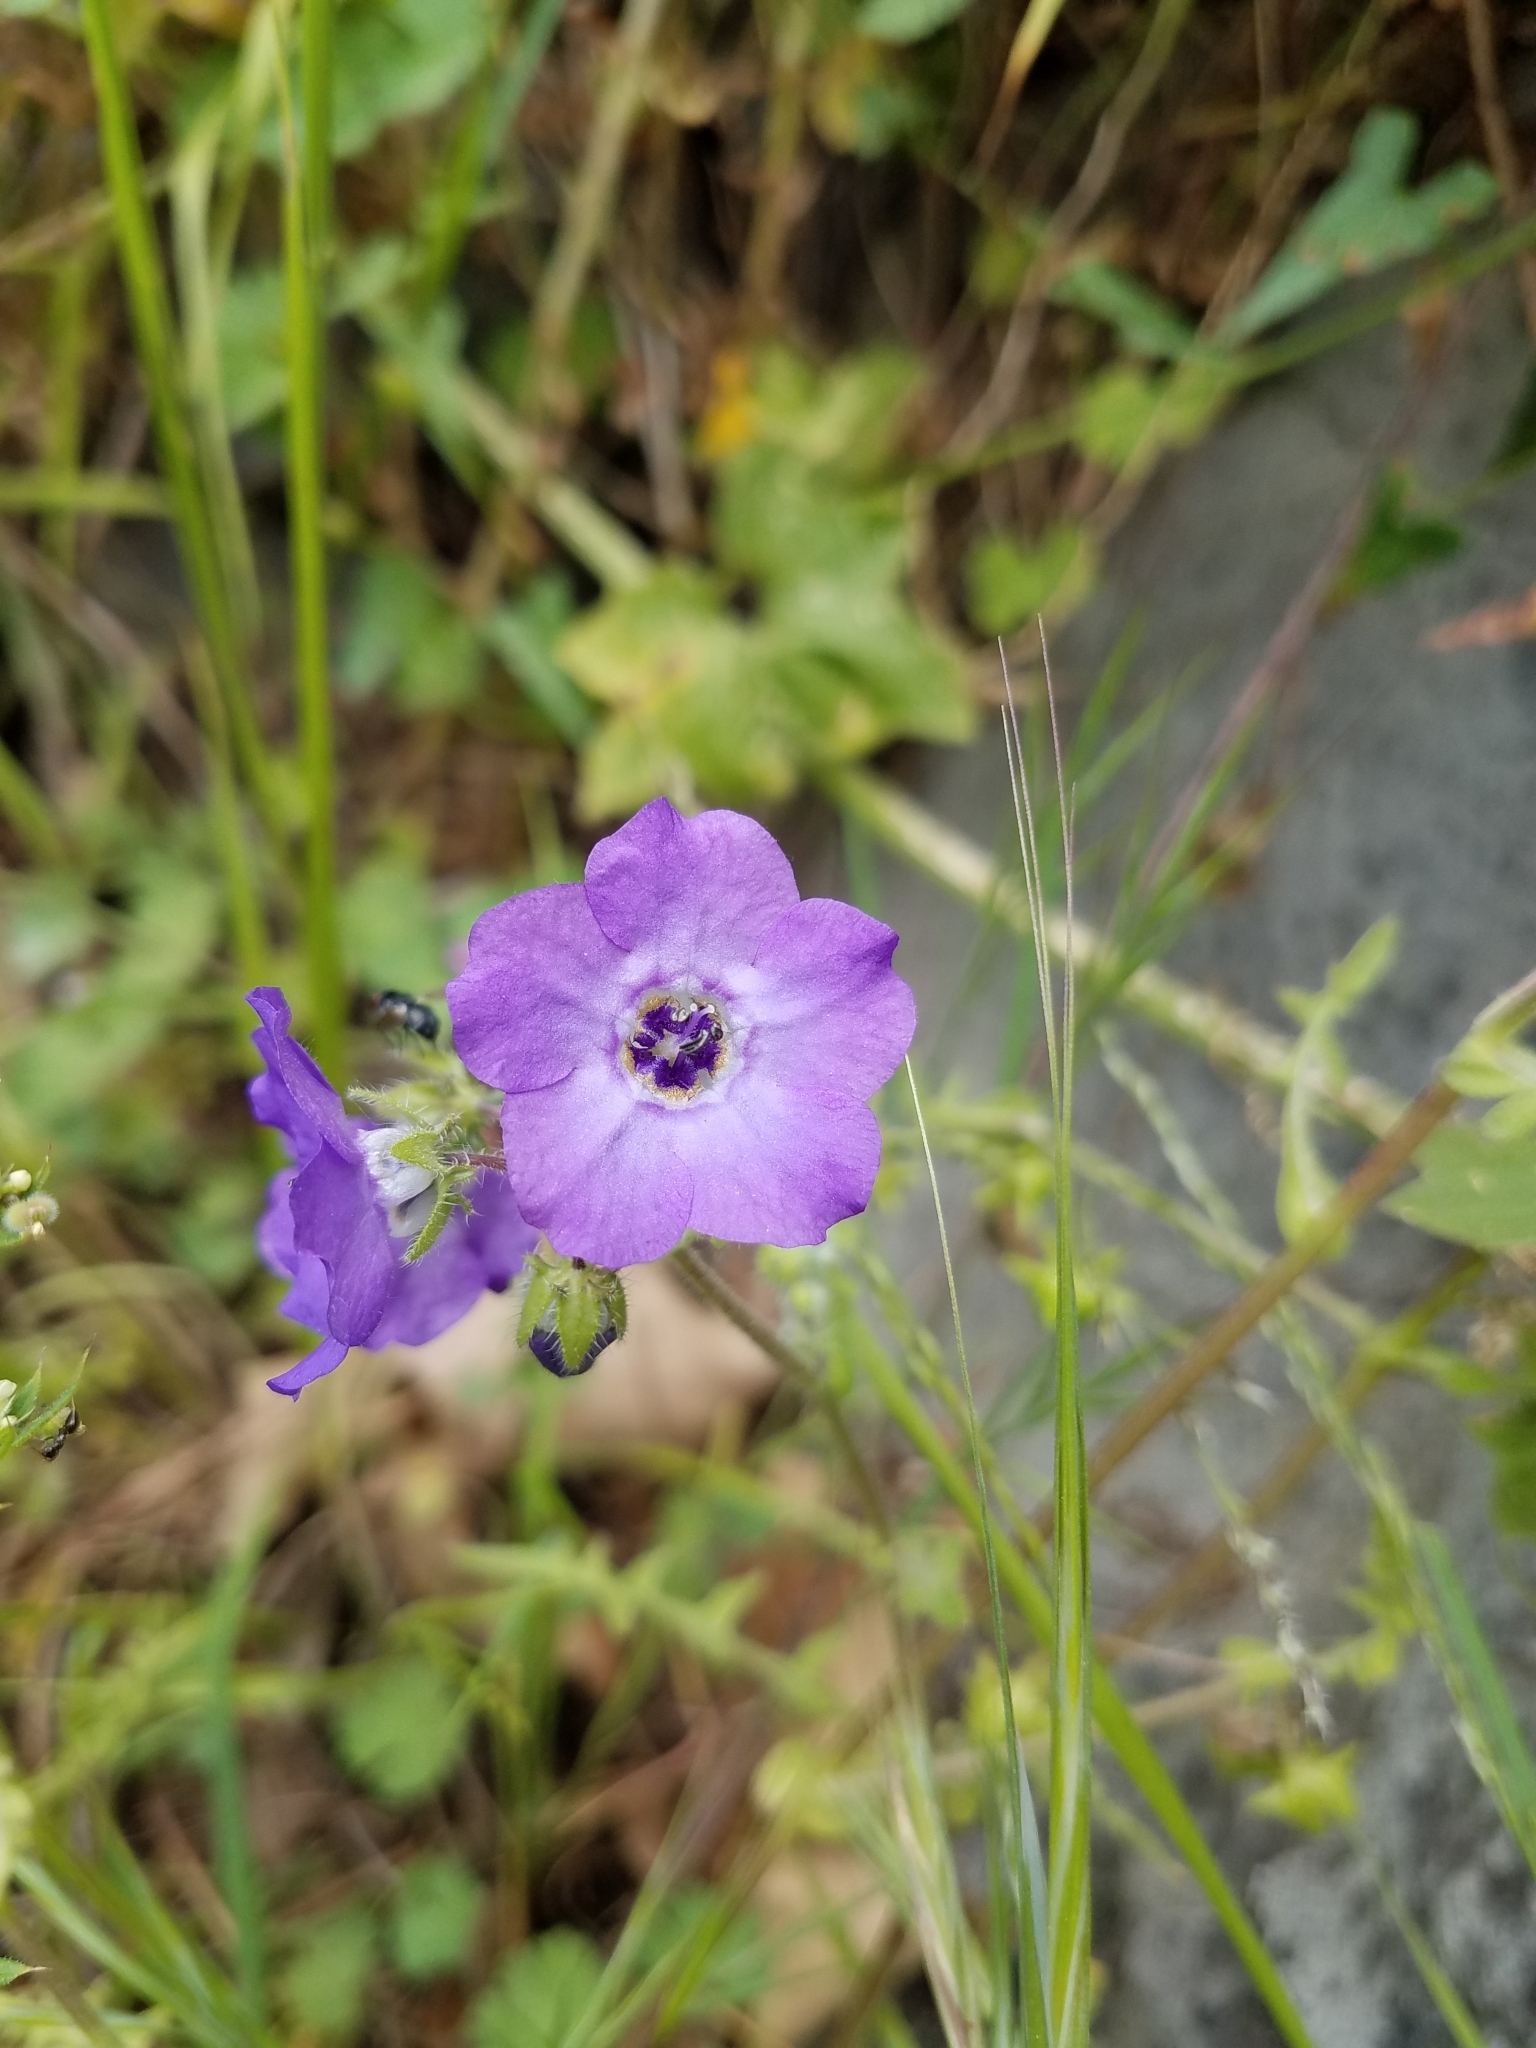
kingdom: Plantae
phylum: Tracheophyta
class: Magnoliopsida
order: Boraginales
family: Hydrophyllaceae
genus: Pholistoma
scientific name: Pholistoma auritum
